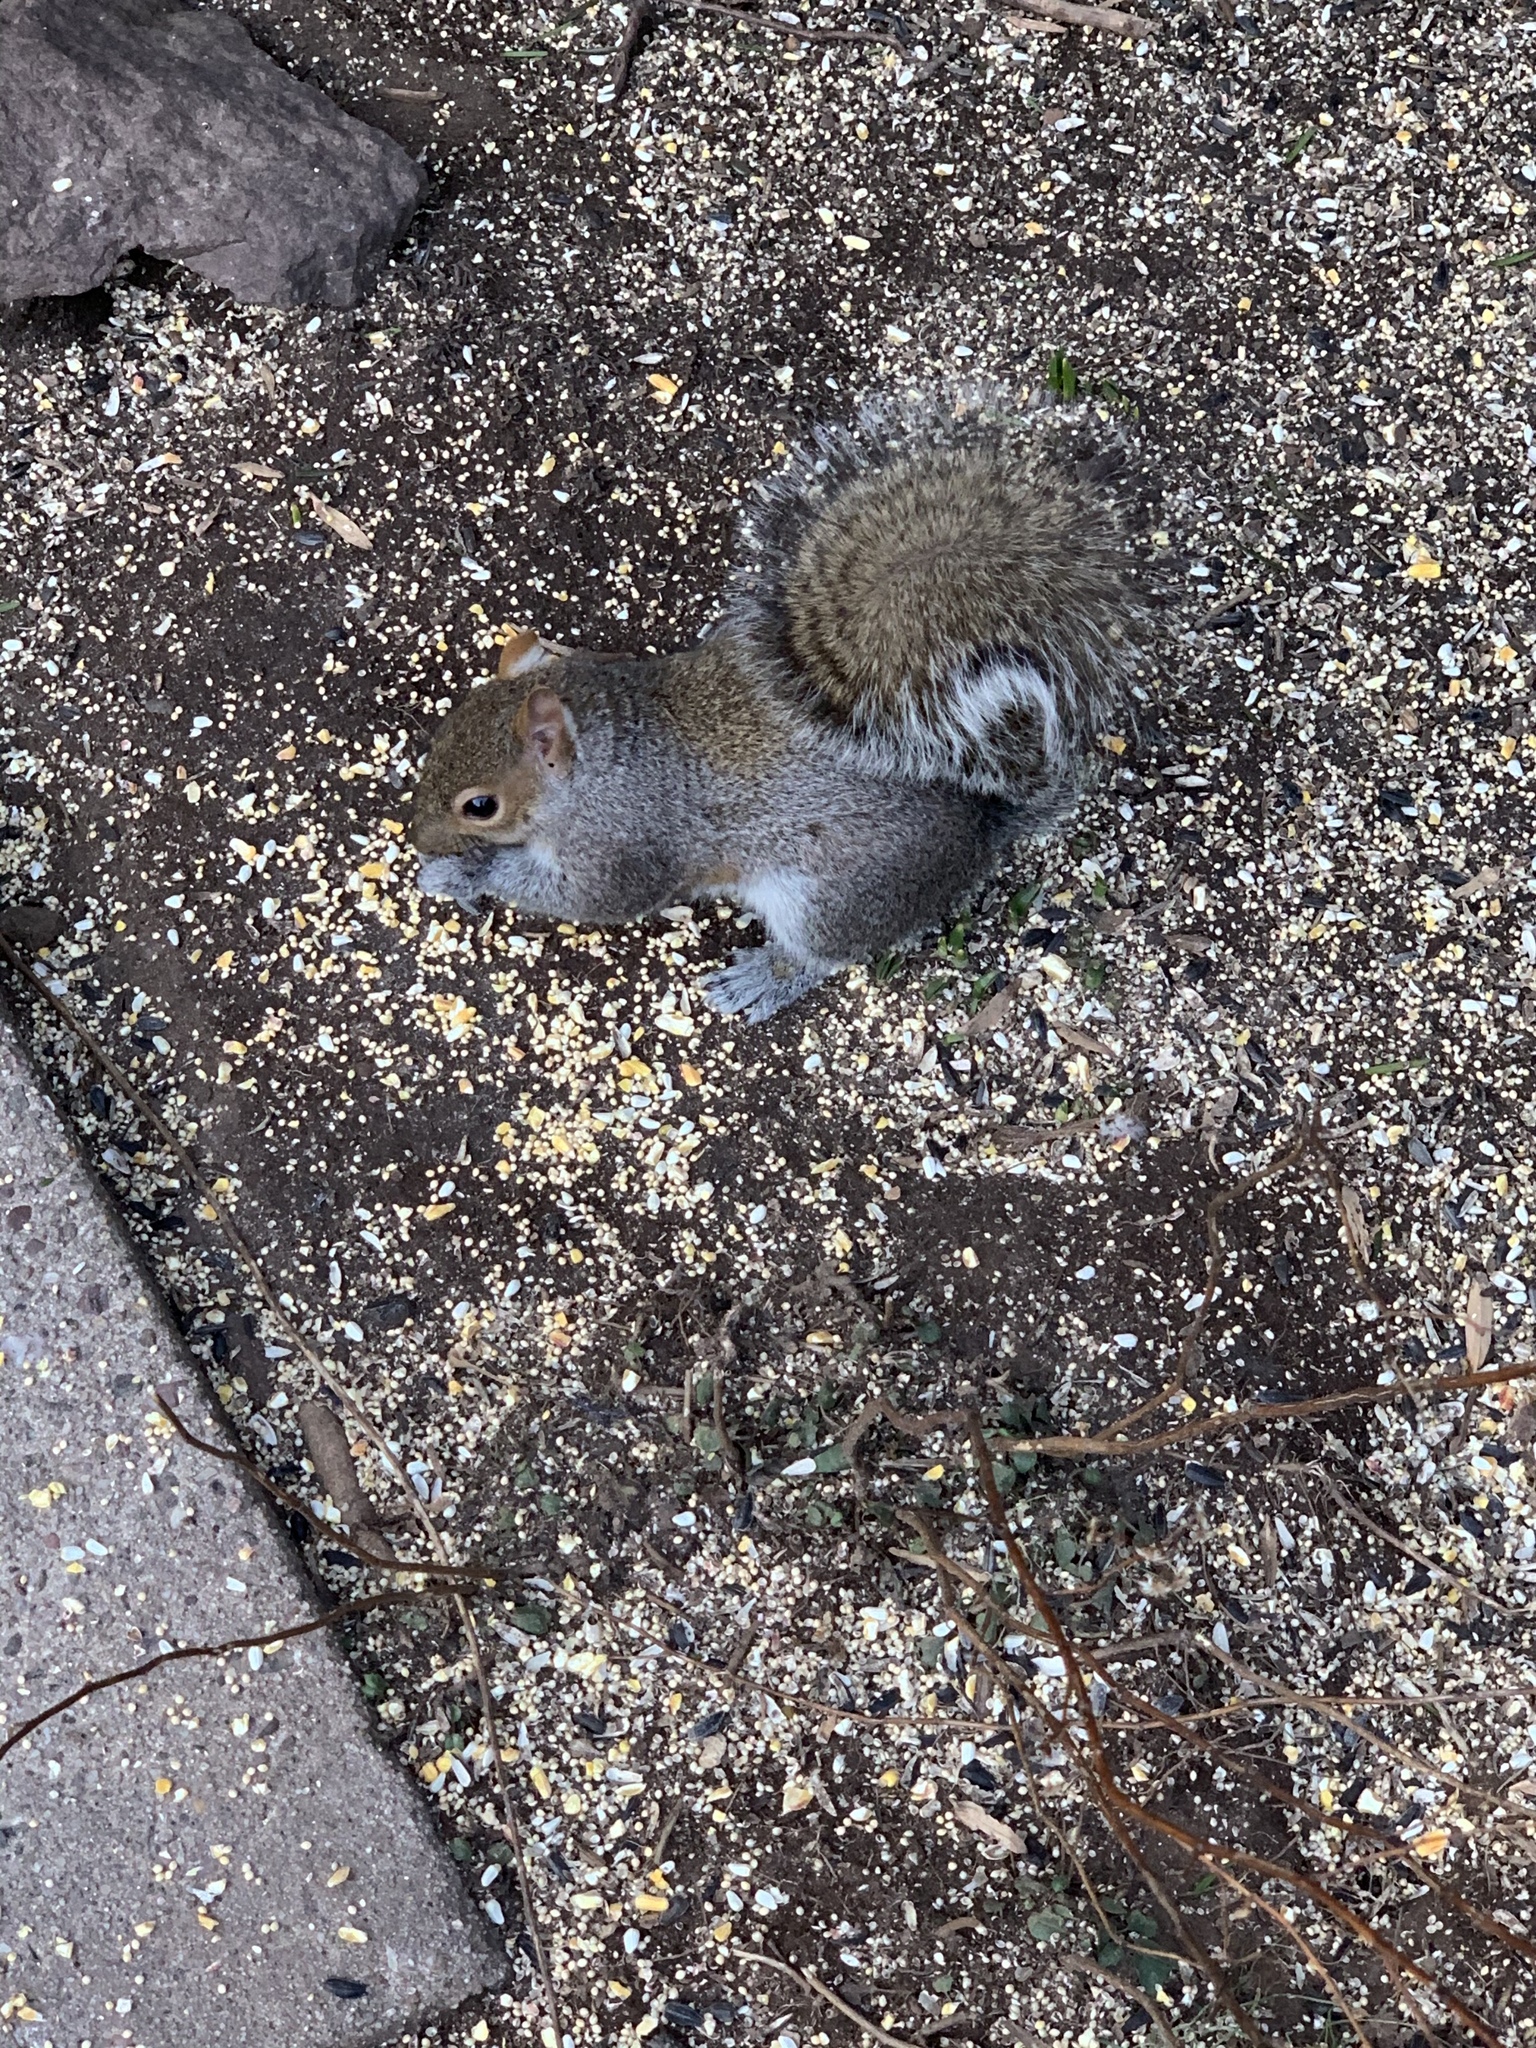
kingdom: Animalia
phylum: Chordata
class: Mammalia
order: Rodentia
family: Sciuridae
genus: Sciurus
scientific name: Sciurus carolinensis
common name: Eastern gray squirrel
